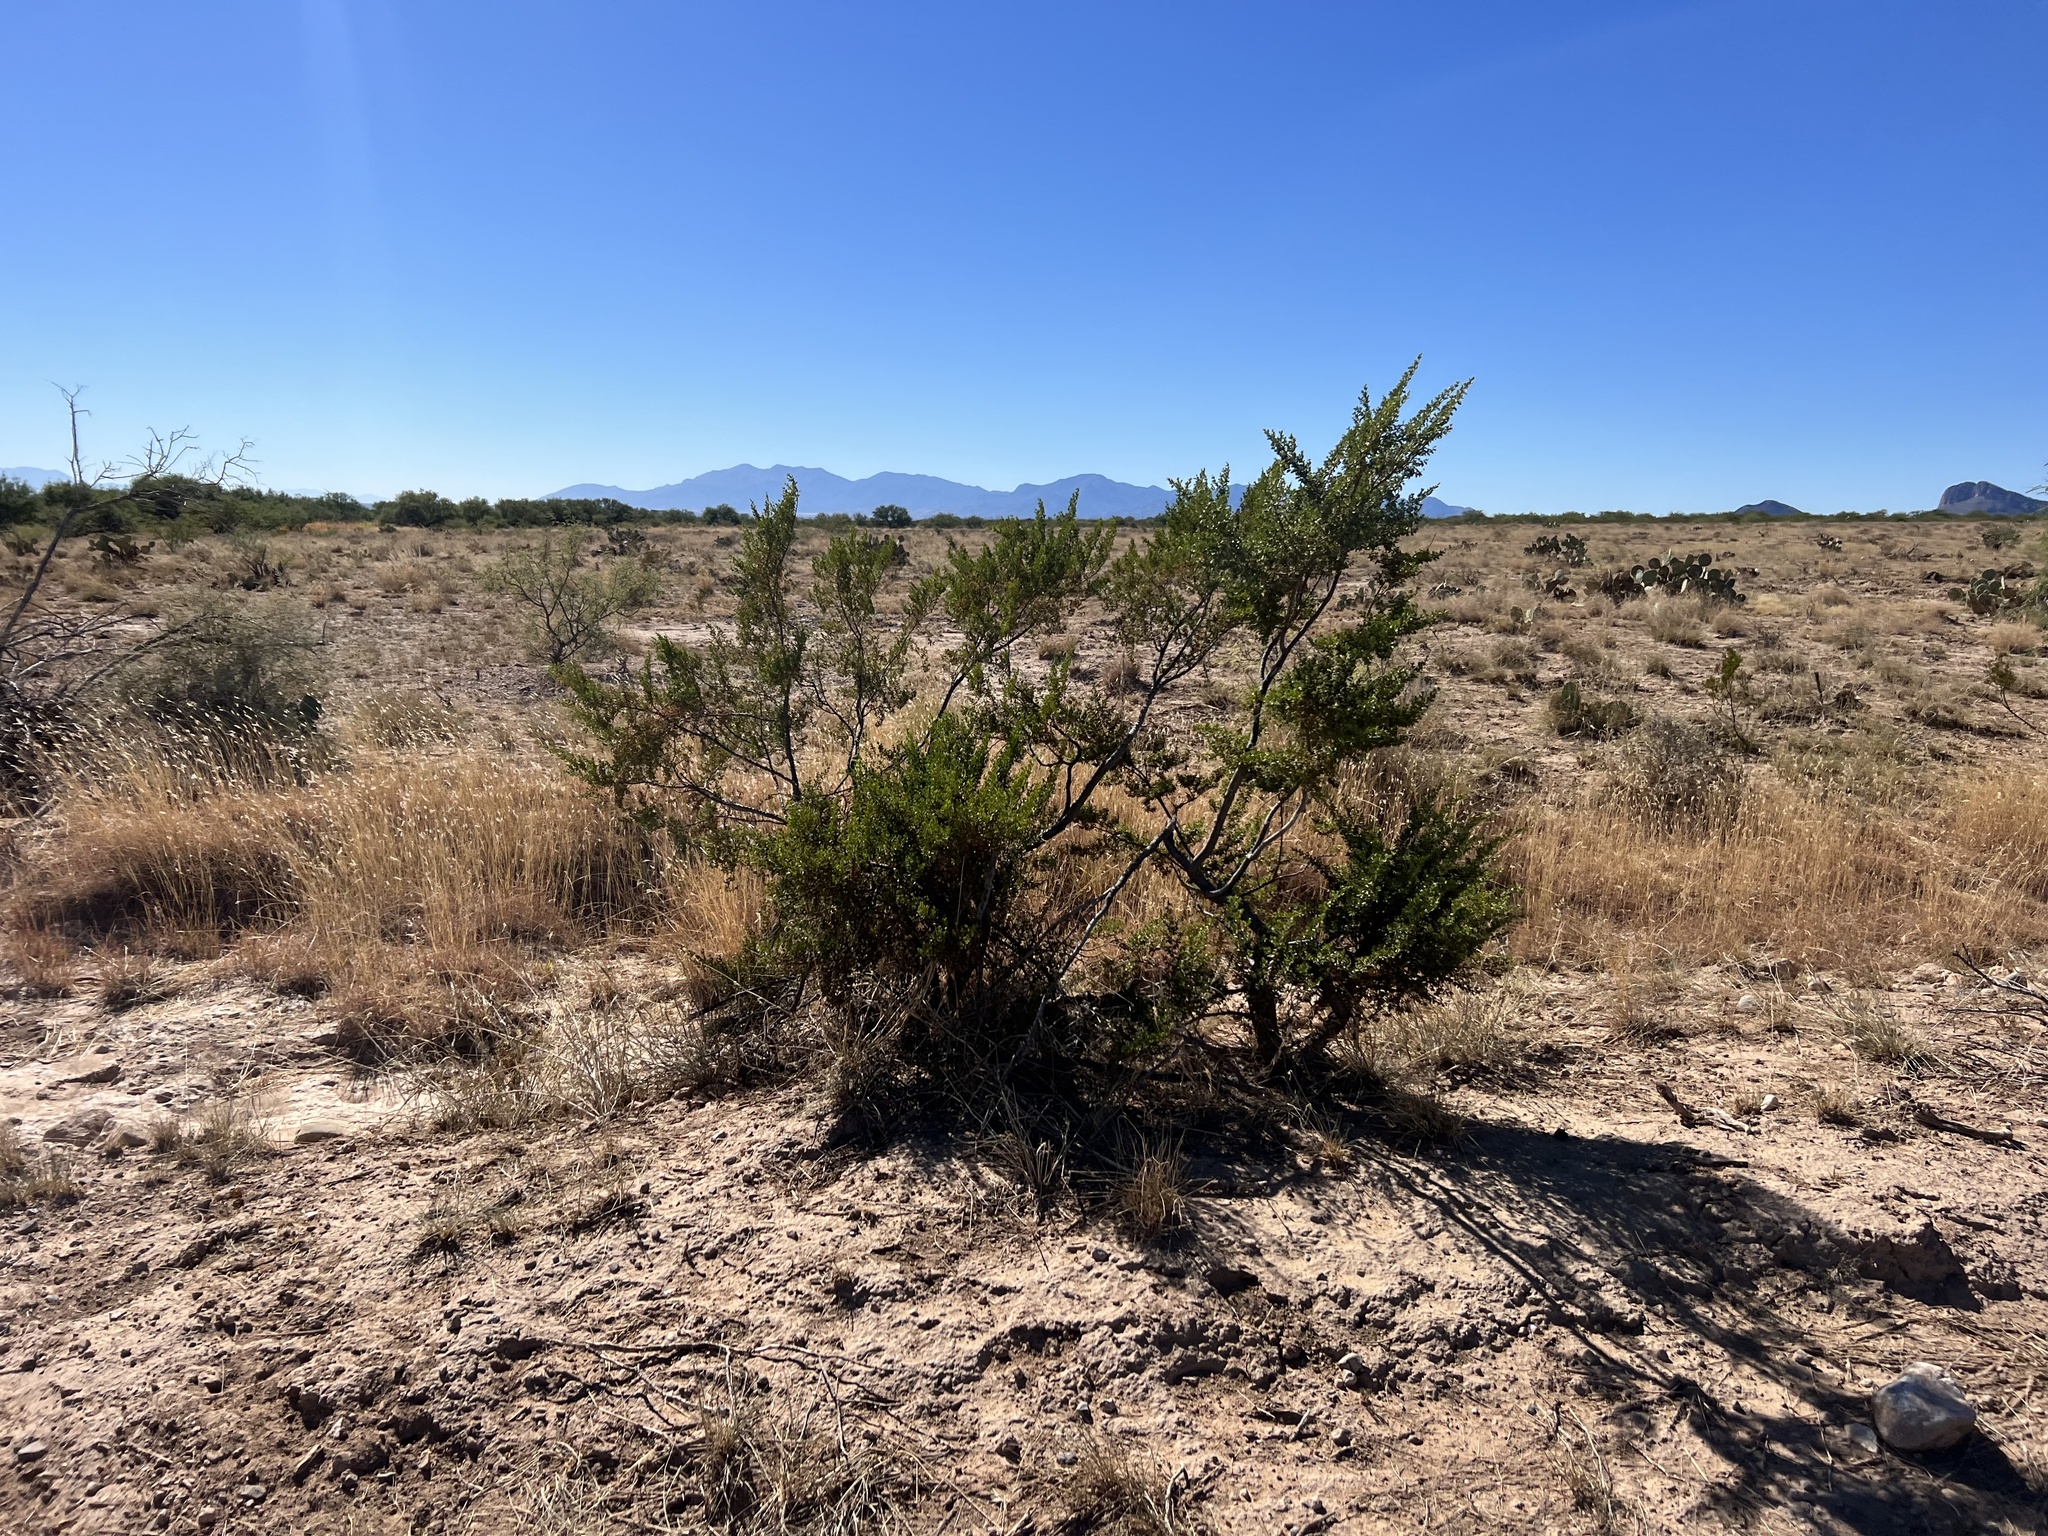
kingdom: Plantae
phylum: Tracheophyta
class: Magnoliopsida
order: Zygophyllales
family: Zygophyllaceae
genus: Larrea
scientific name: Larrea tridentata
